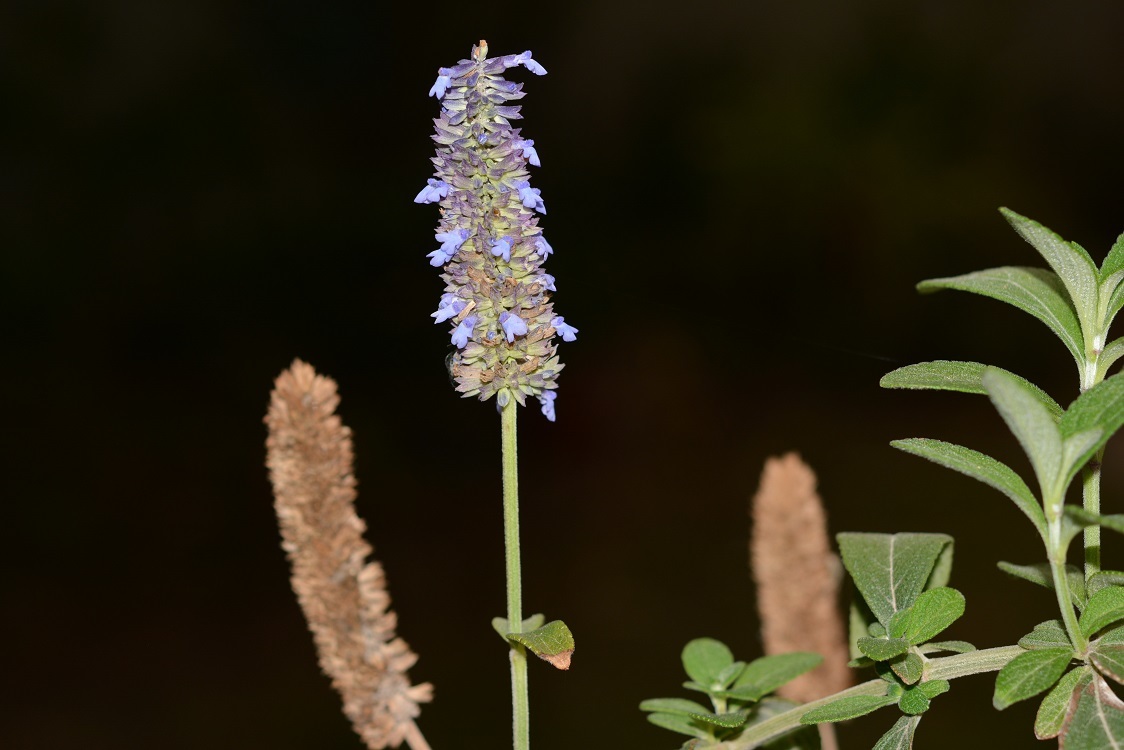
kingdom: Plantae
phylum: Tracheophyta
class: Magnoliopsida
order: Lamiales
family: Lamiaceae
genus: Salvia
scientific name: Salvia lavanduloides
